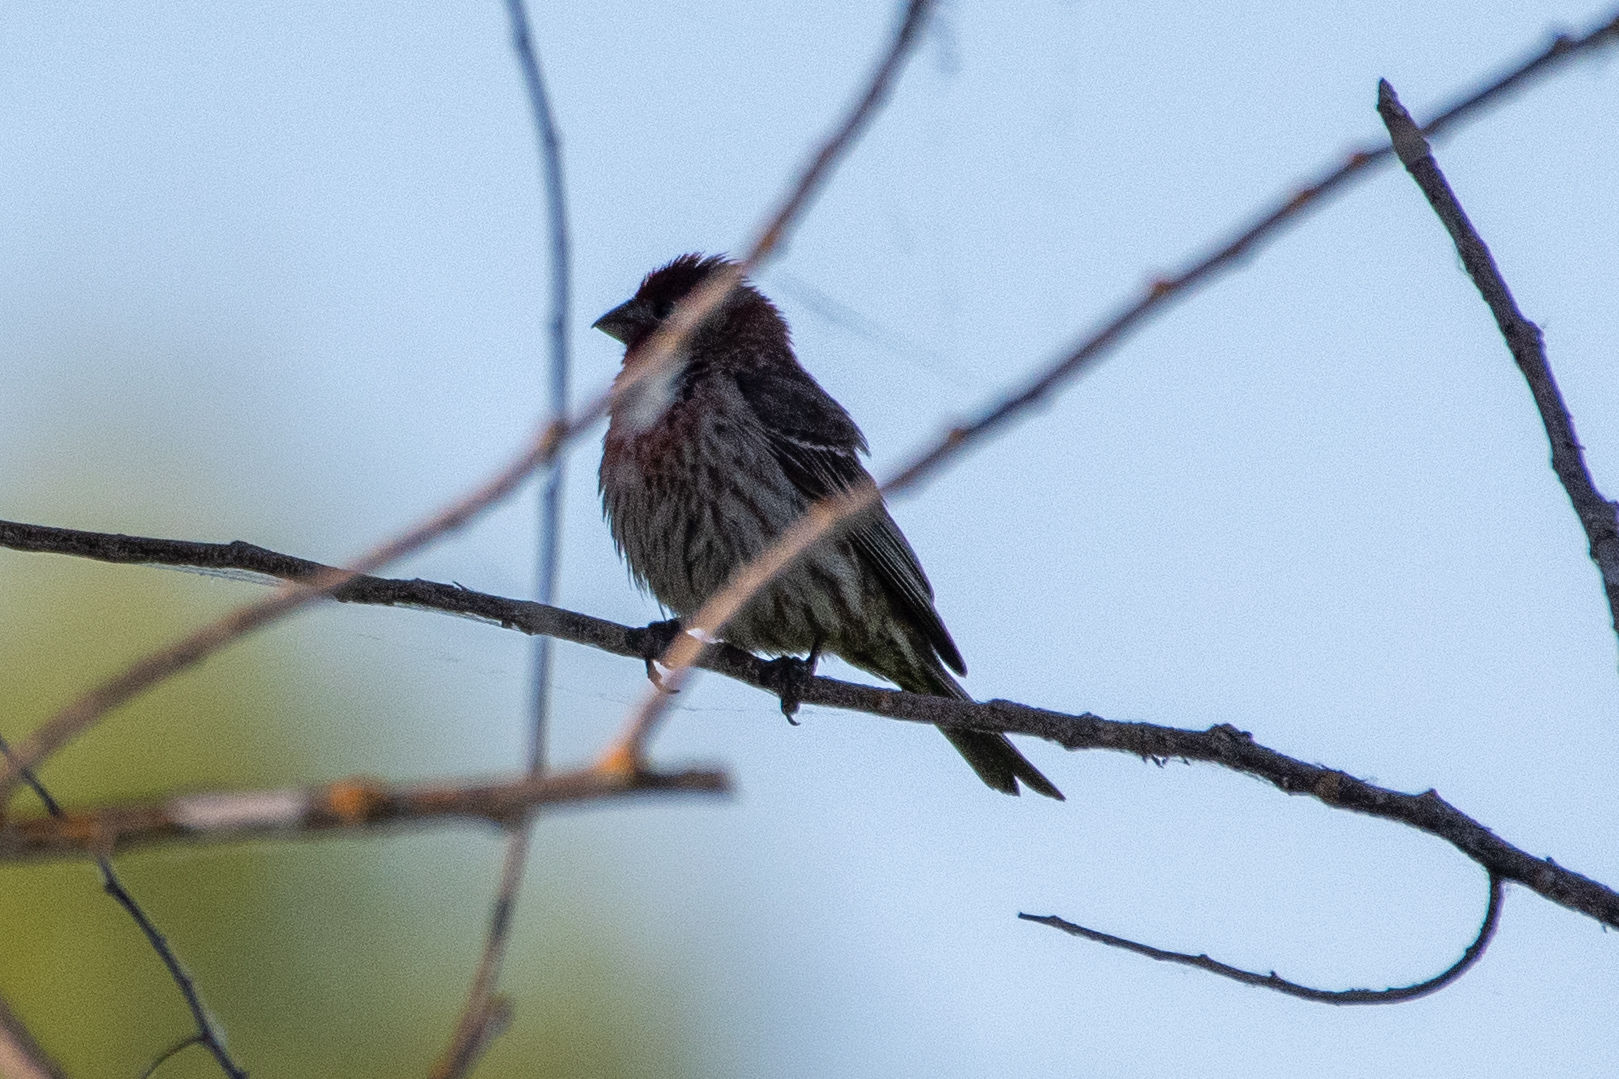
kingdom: Animalia
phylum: Chordata
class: Aves
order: Passeriformes
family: Fringillidae
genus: Haemorhous
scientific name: Haemorhous mexicanus
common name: House finch
